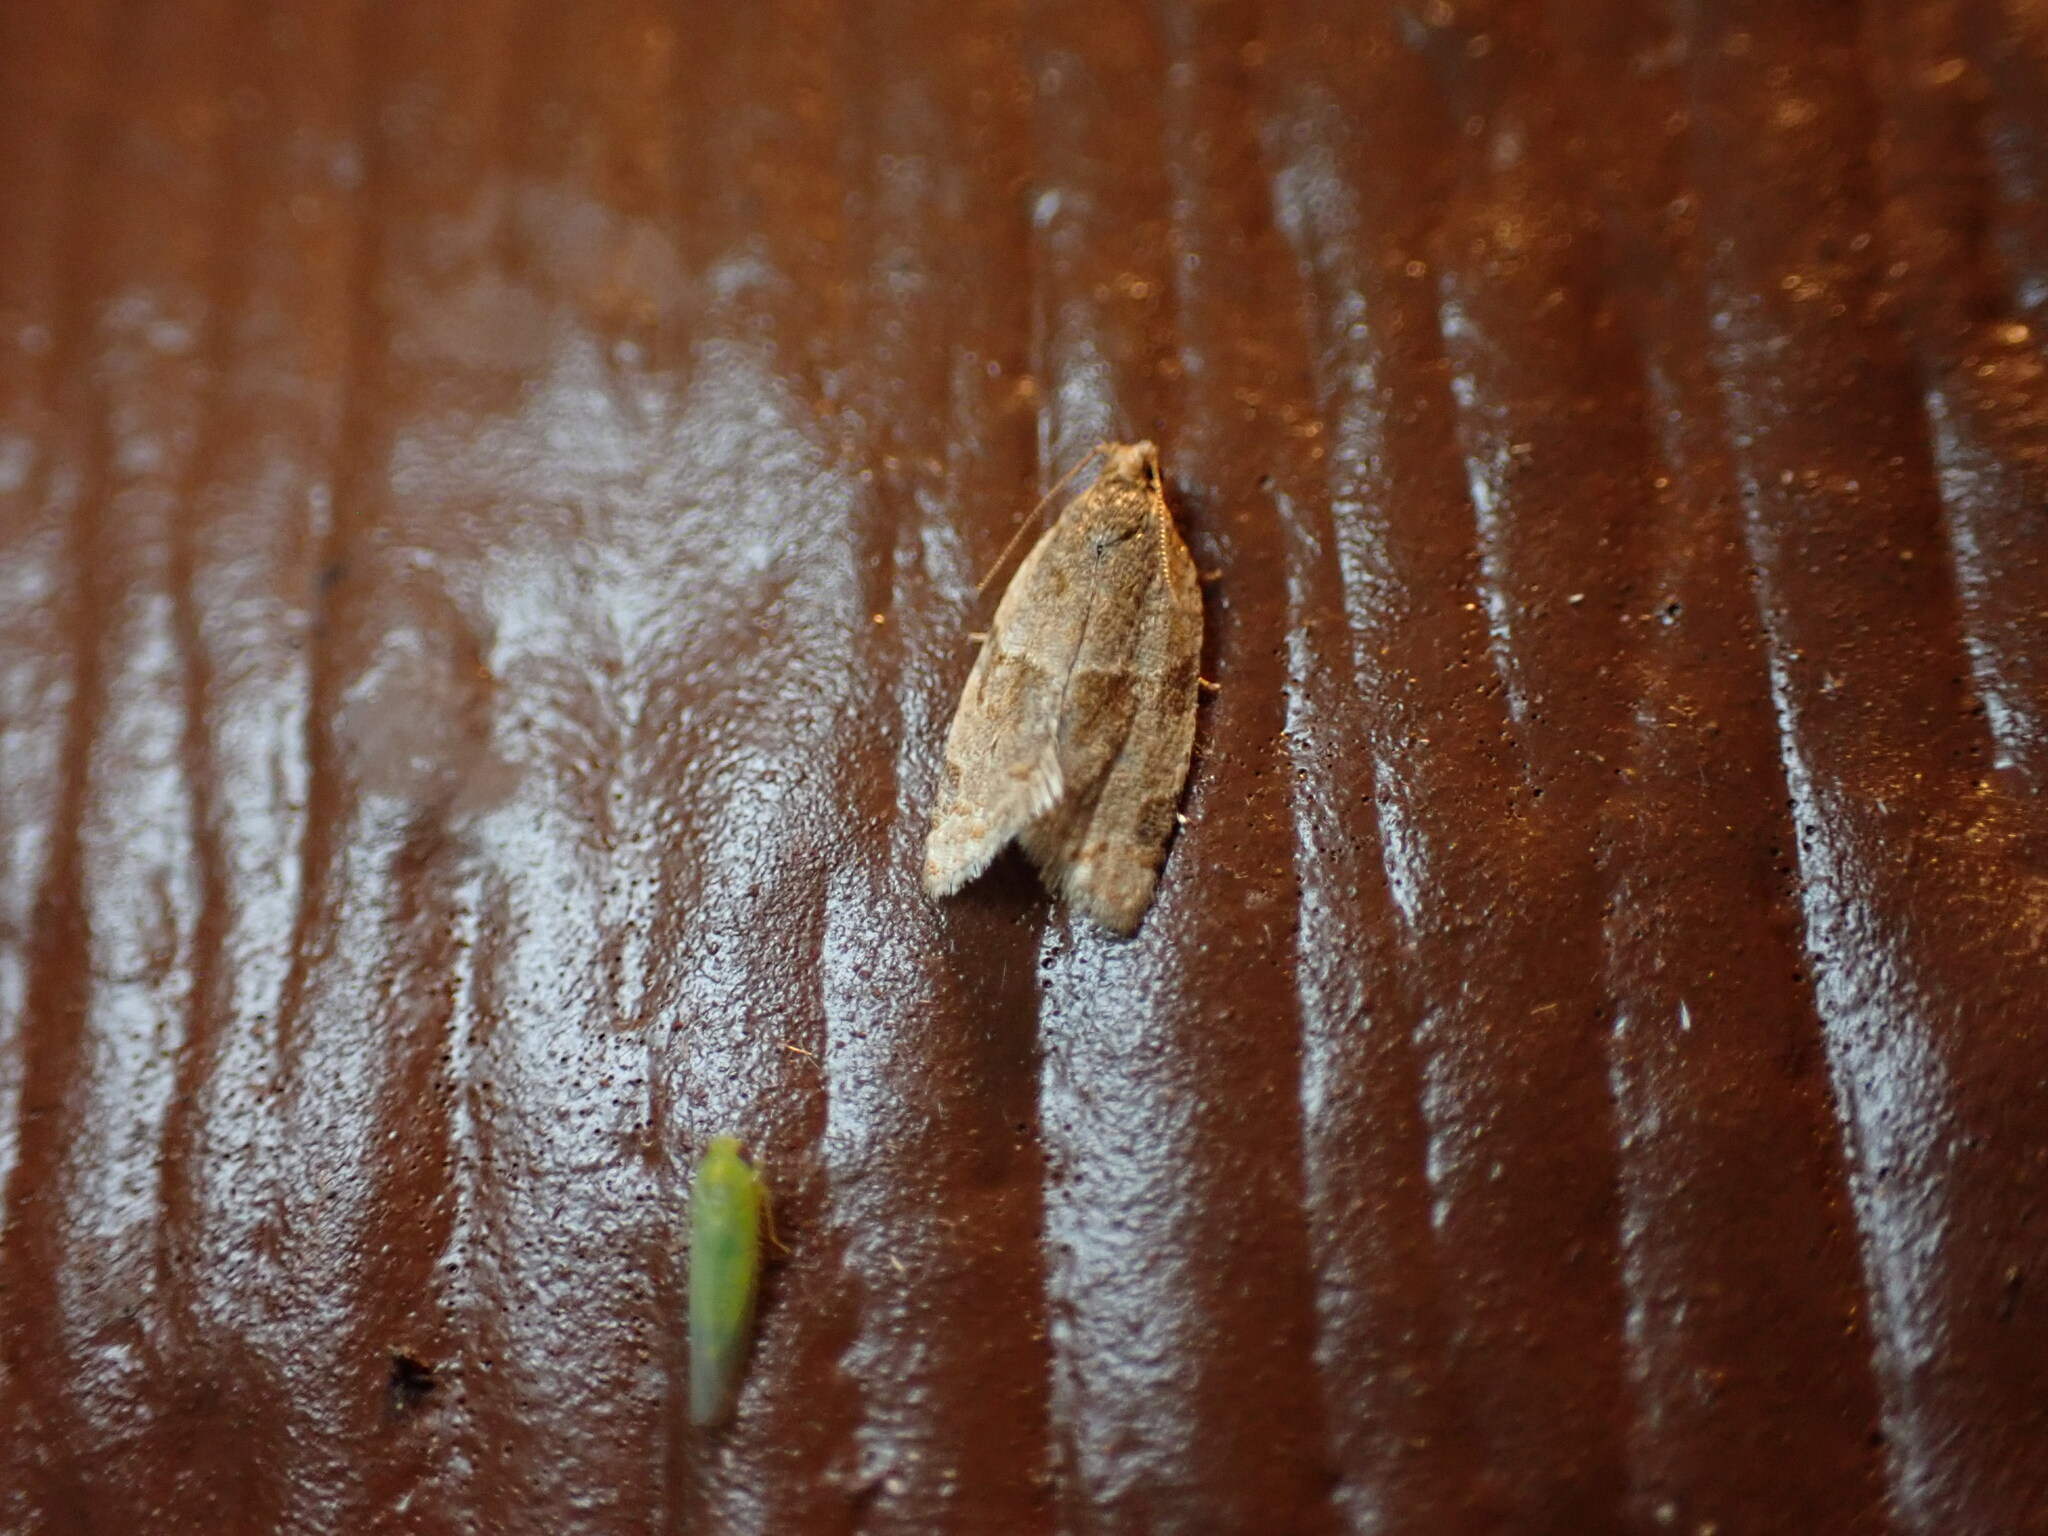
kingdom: Animalia
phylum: Arthropoda
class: Insecta
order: Lepidoptera
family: Tortricidae
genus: Clepsis
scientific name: Clepsis peritana
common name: Garden tortrix
